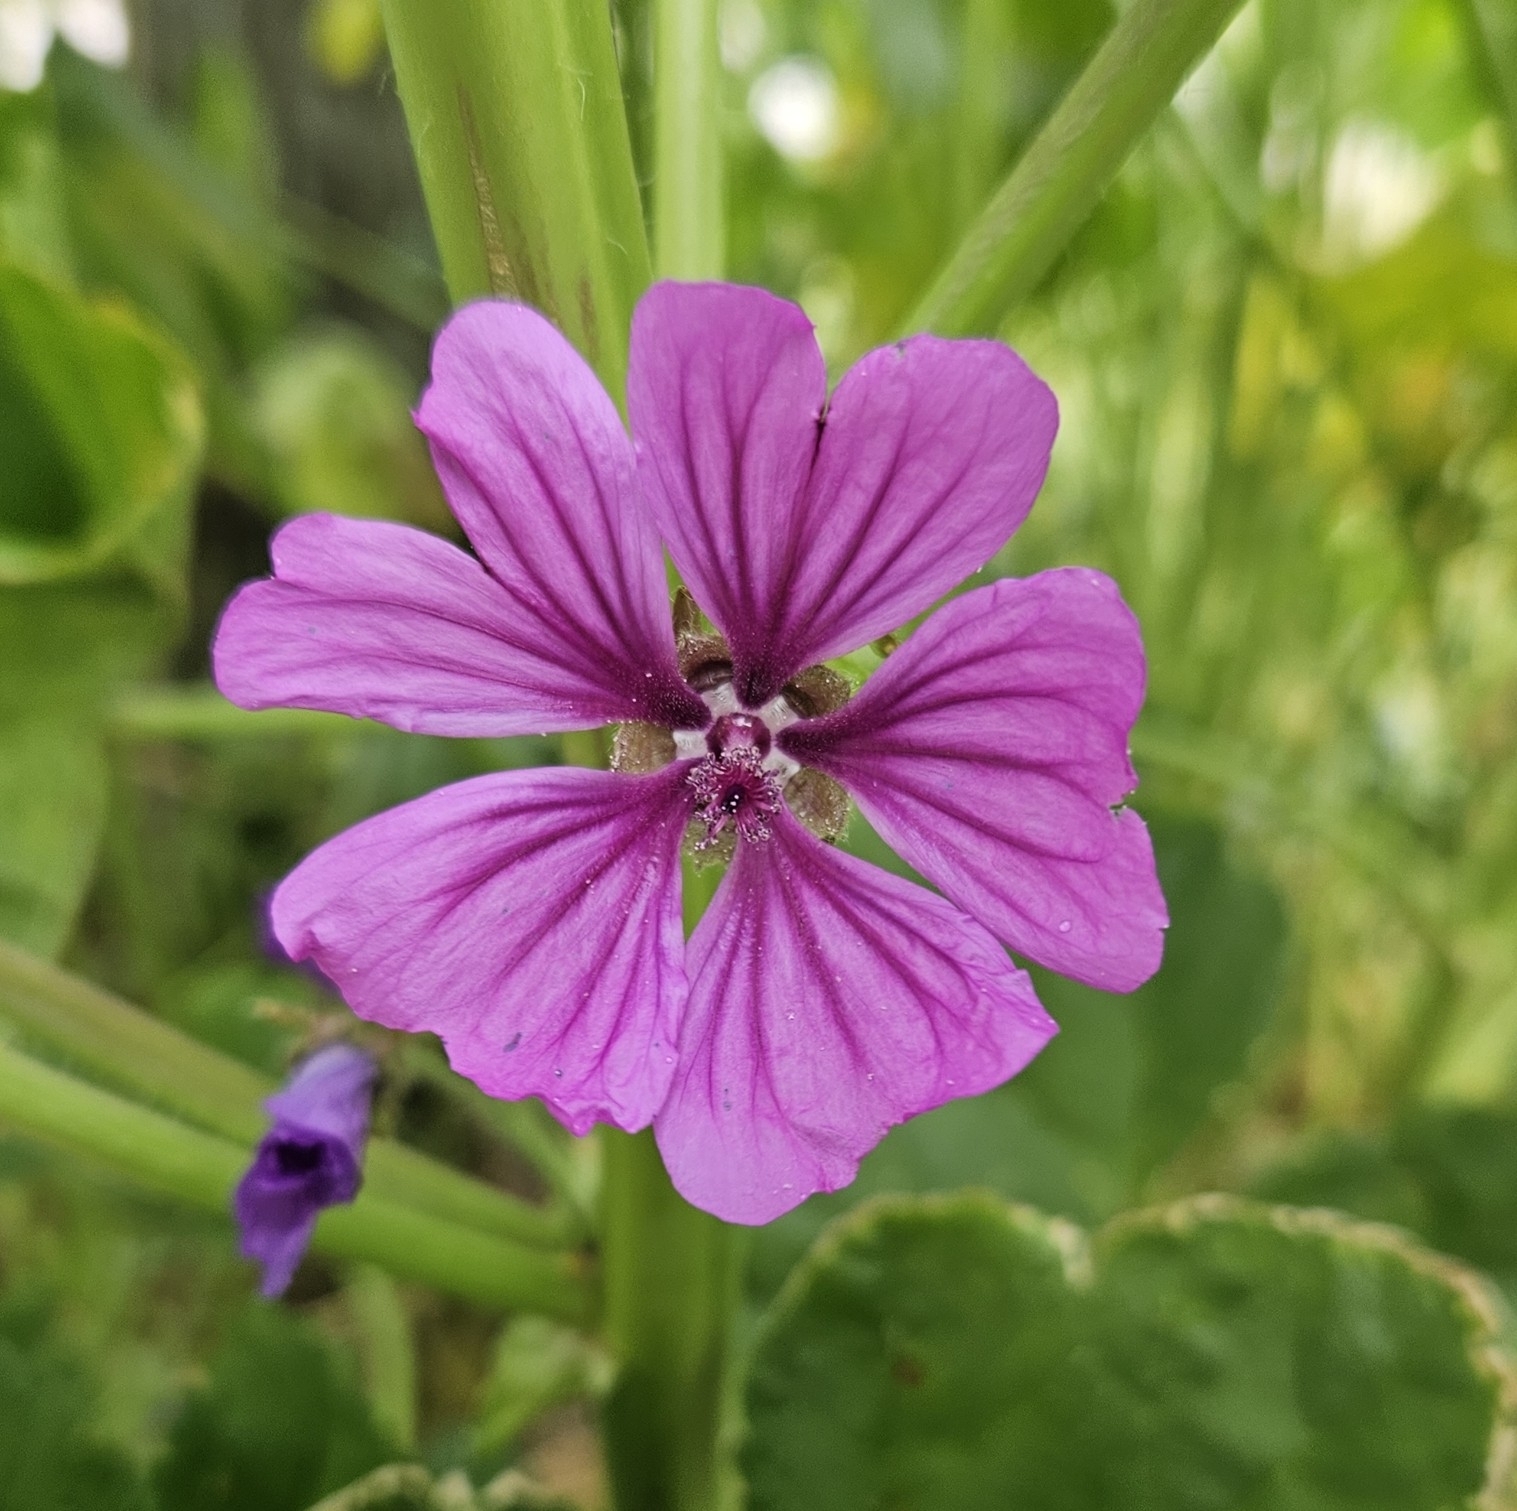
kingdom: Plantae
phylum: Tracheophyta
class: Magnoliopsida
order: Malvales
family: Malvaceae
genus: Malva
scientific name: Malva sylvestris
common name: Common mallow
